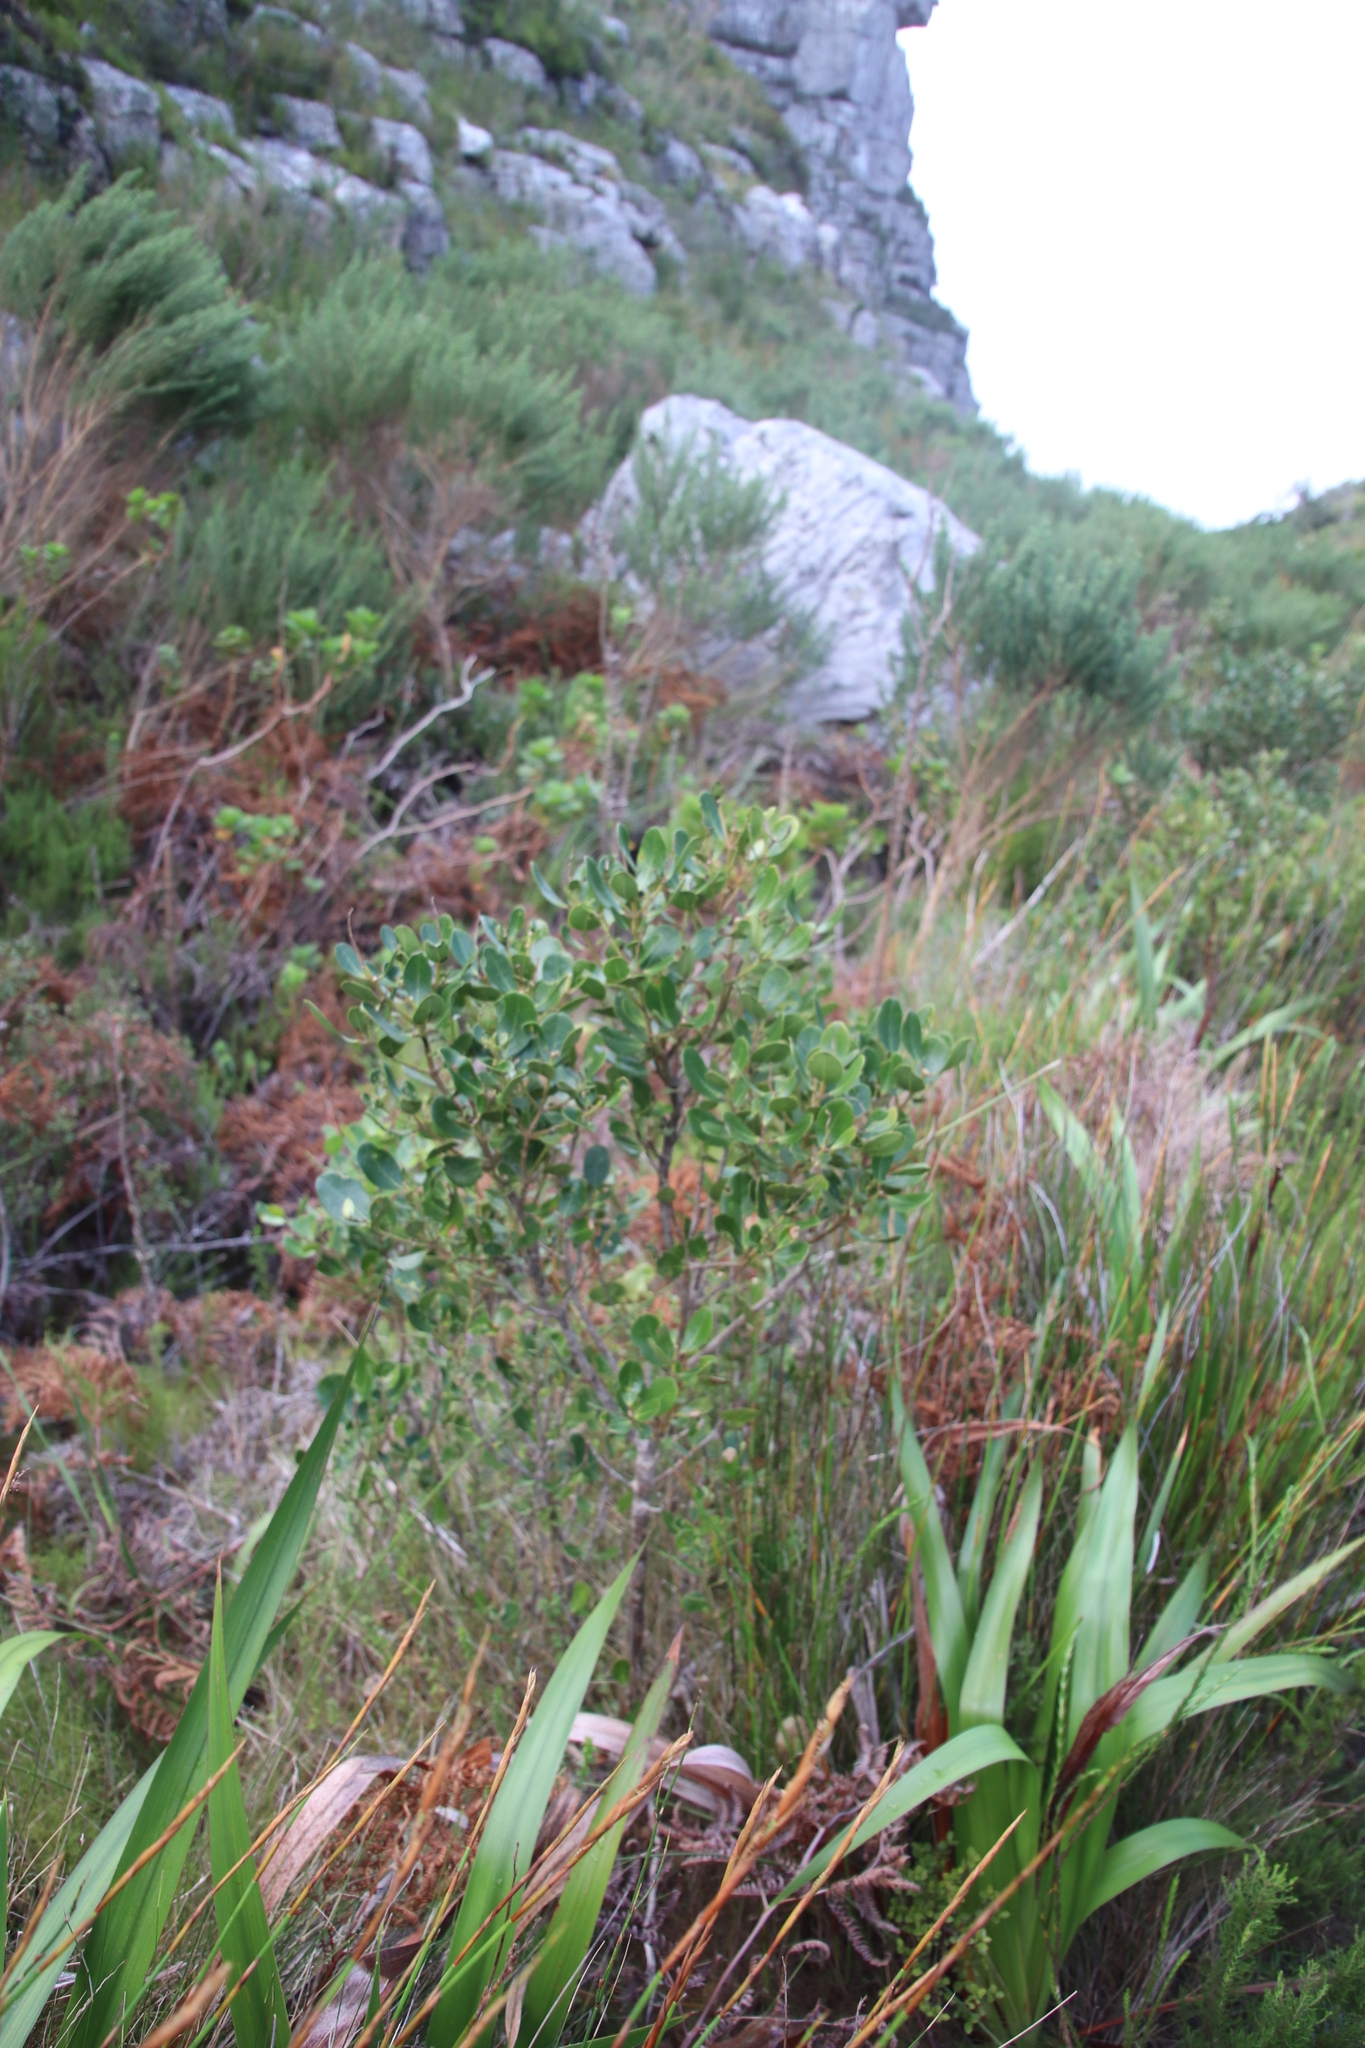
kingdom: Plantae
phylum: Tracheophyta
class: Magnoliopsida
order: Lamiales
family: Oleaceae
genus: Olea
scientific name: Olea capensis
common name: Black ironwood
